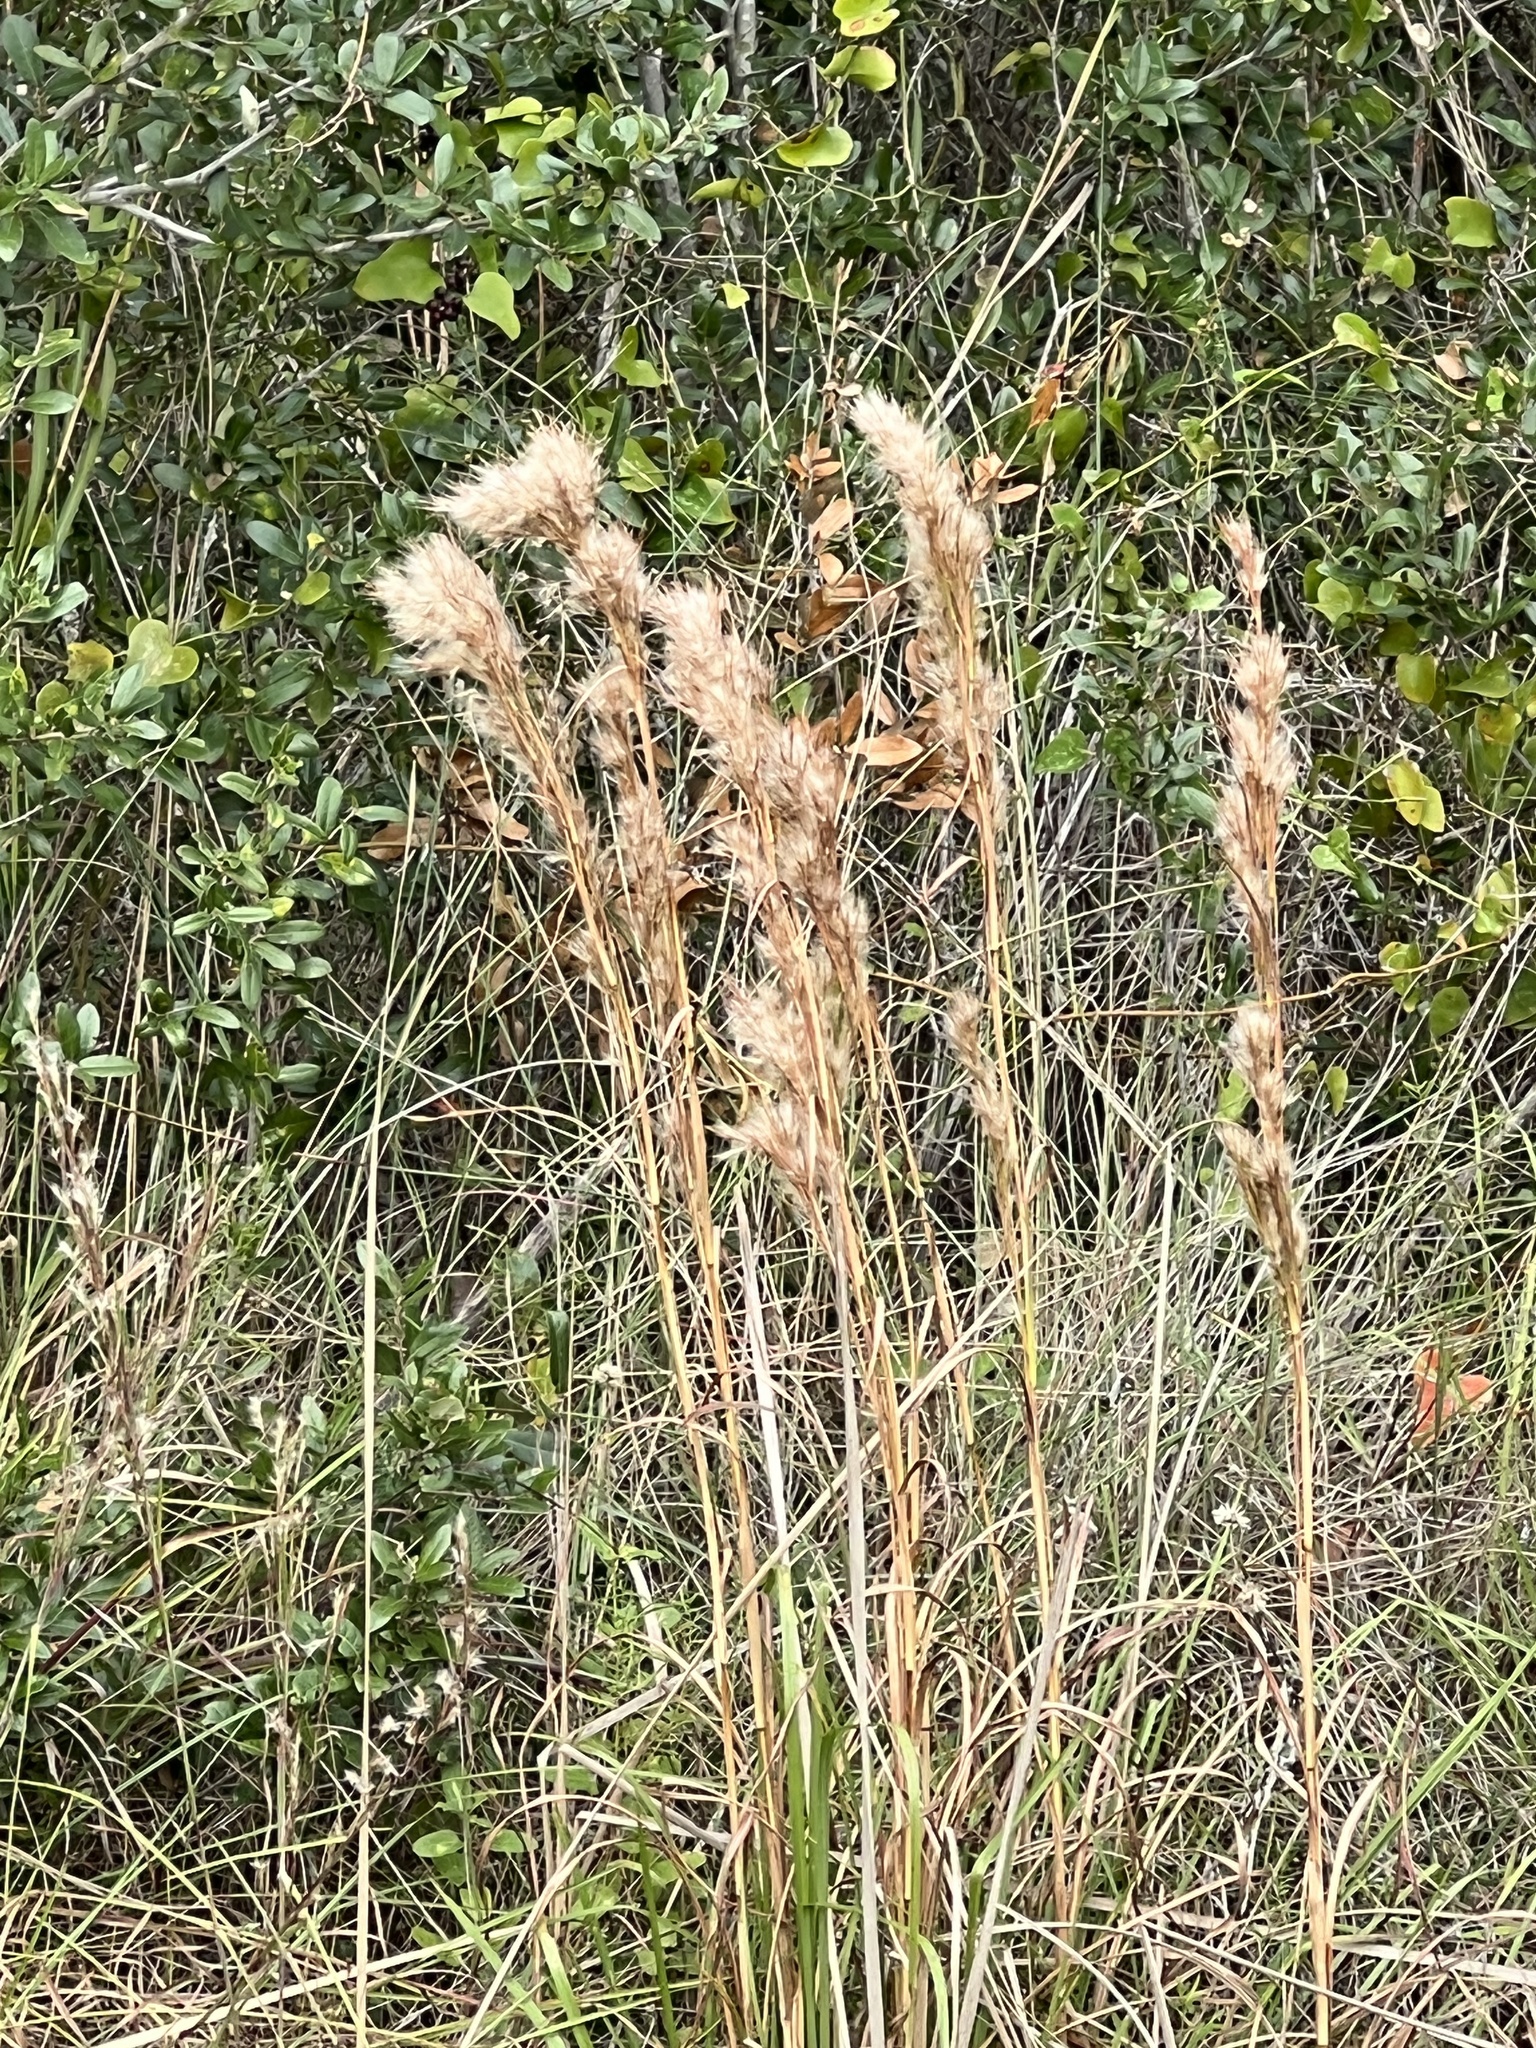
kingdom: Plantae
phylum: Tracheophyta
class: Liliopsida
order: Poales
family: Poaceae
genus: Andropogon
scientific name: Andropogon tenuispatheus
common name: Bushy bluestem
